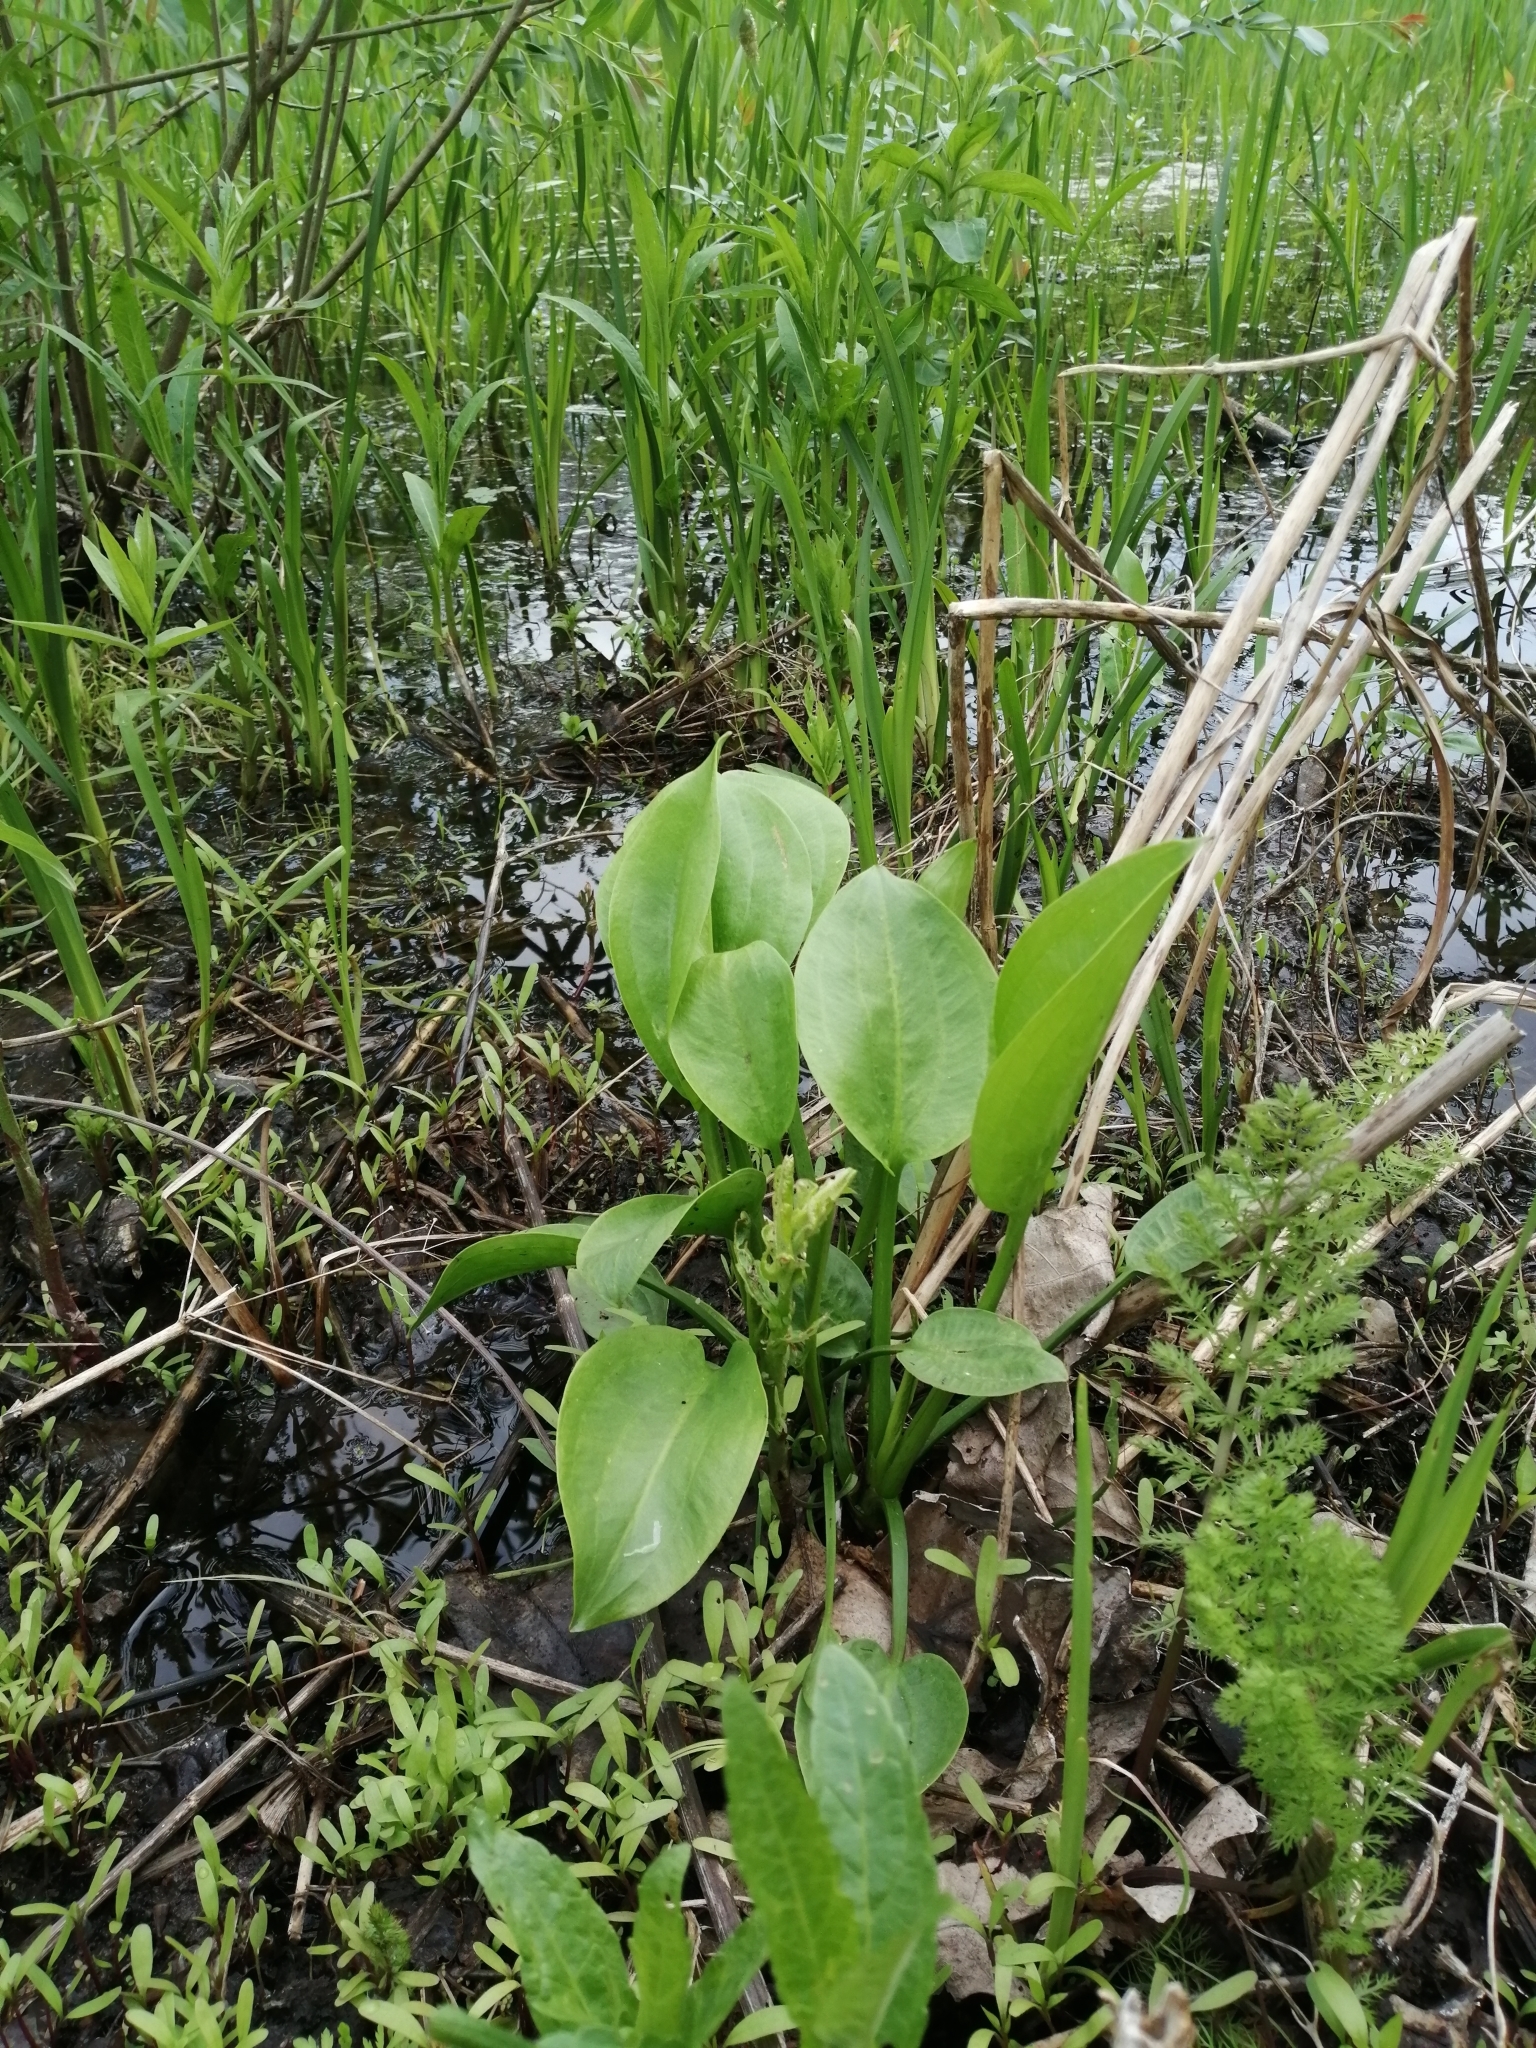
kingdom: Plantae
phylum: Tracheophyta
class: Liliopsida
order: Alismatales
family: Alismataceae
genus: Alisma
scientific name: Alisma plantago-aquatica
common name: Water-plantain
